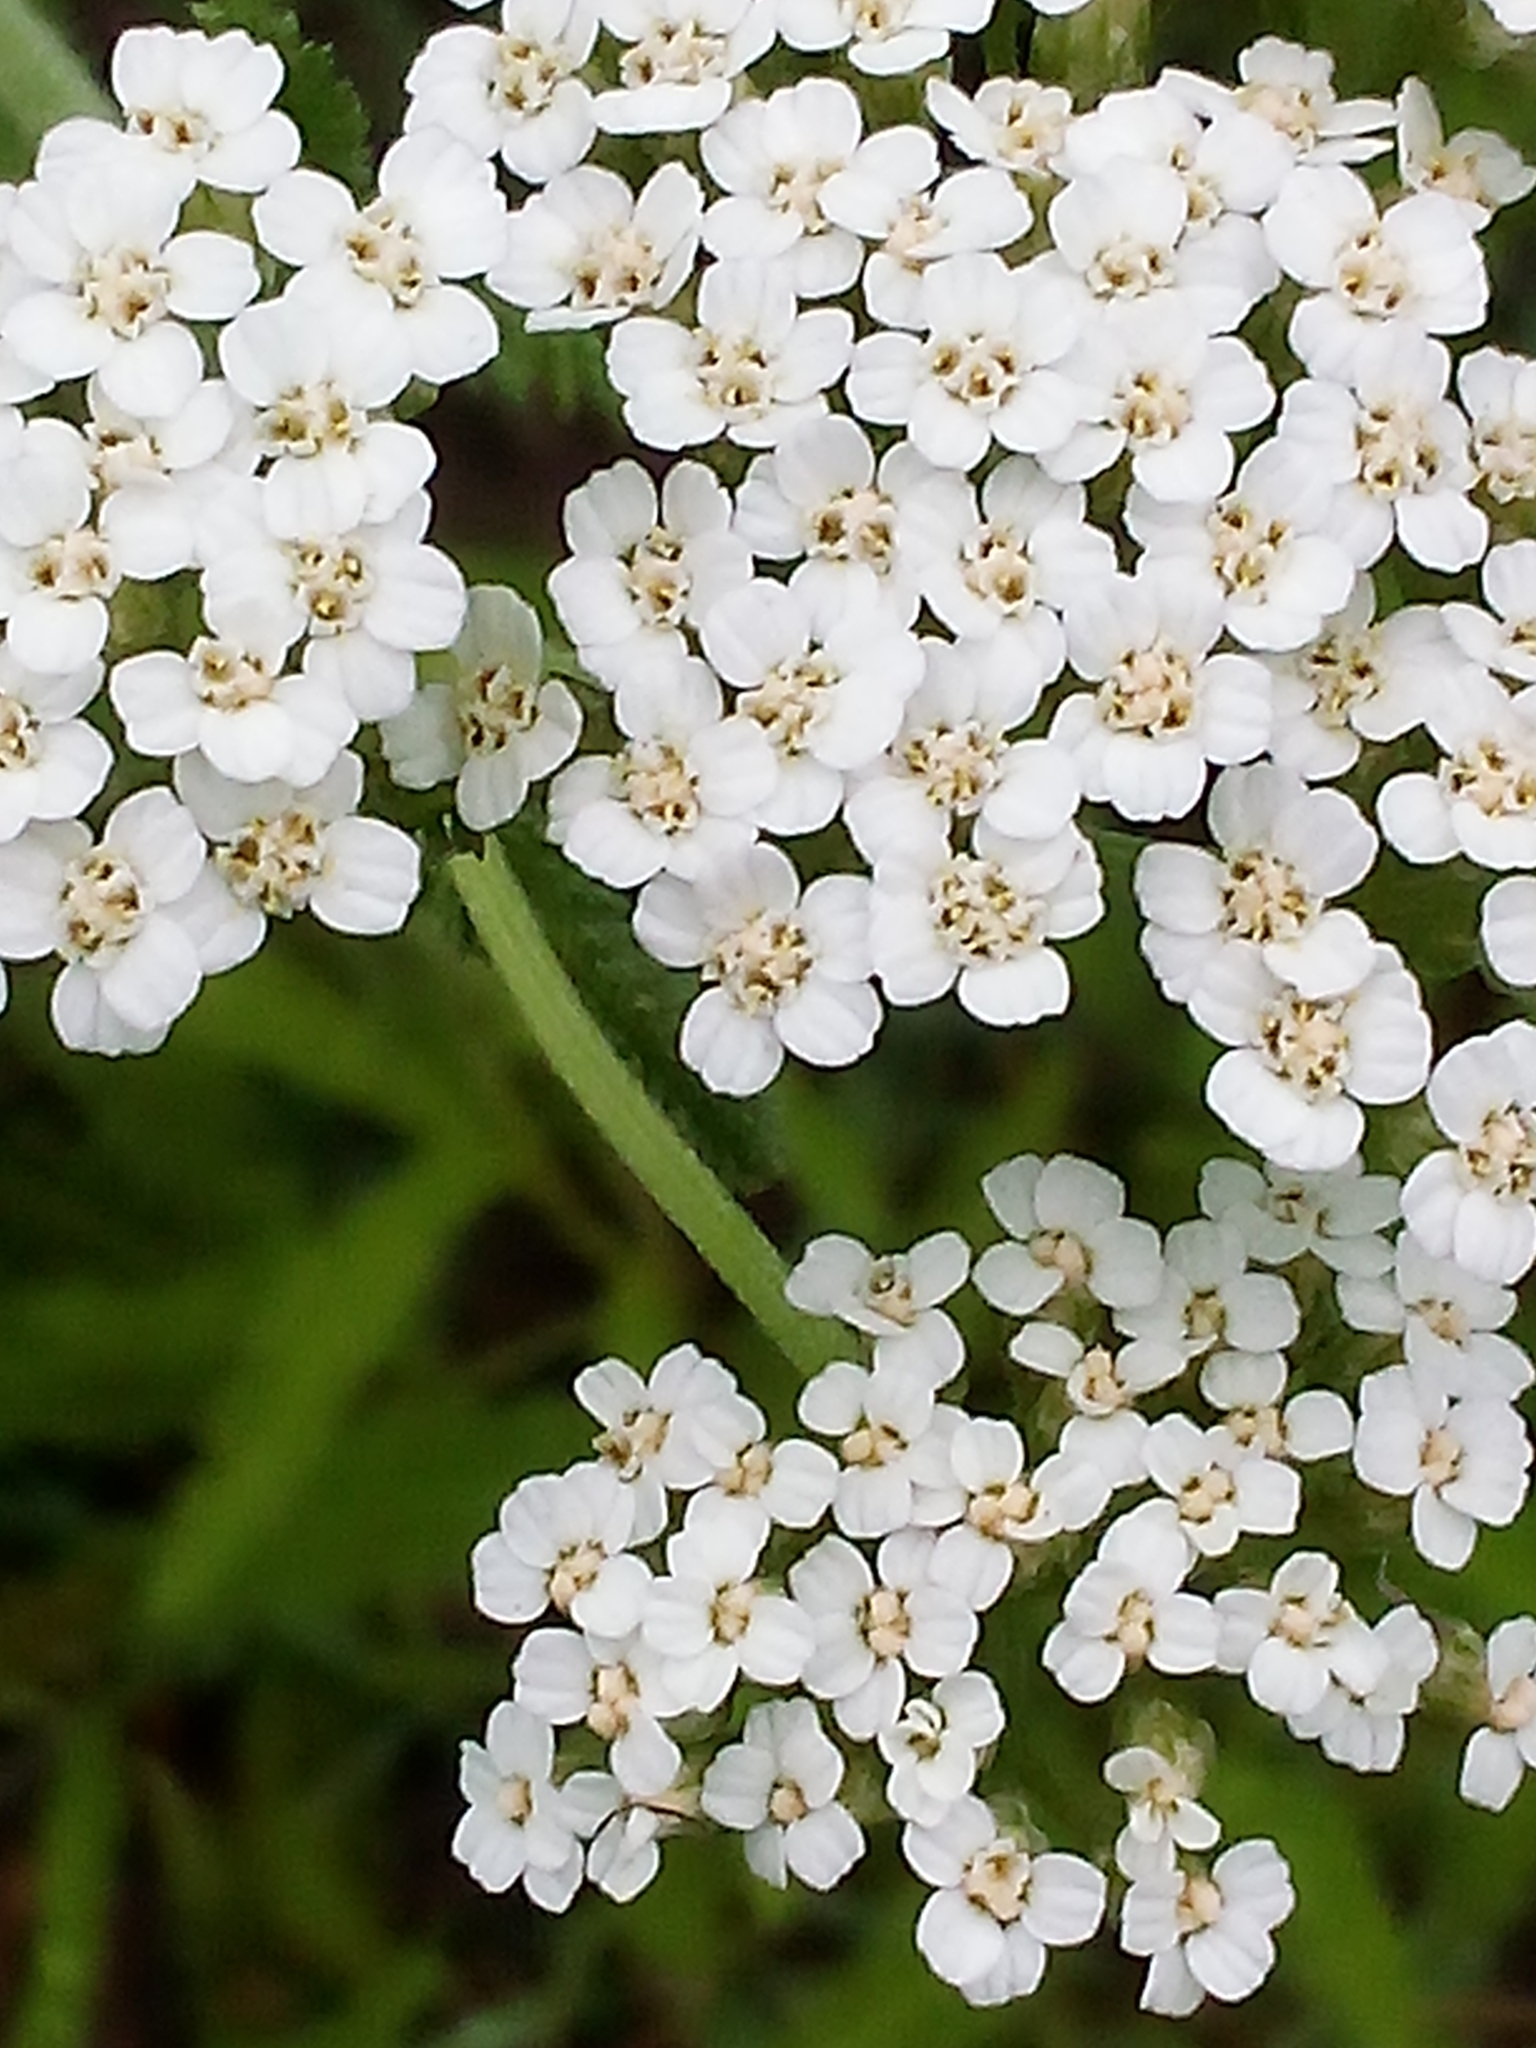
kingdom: Plantae
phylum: Tracheophyta
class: Magnoliopsida
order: Asterales
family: Asteraceae
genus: Achillea
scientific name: Achillea millefolium
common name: Yarrow
